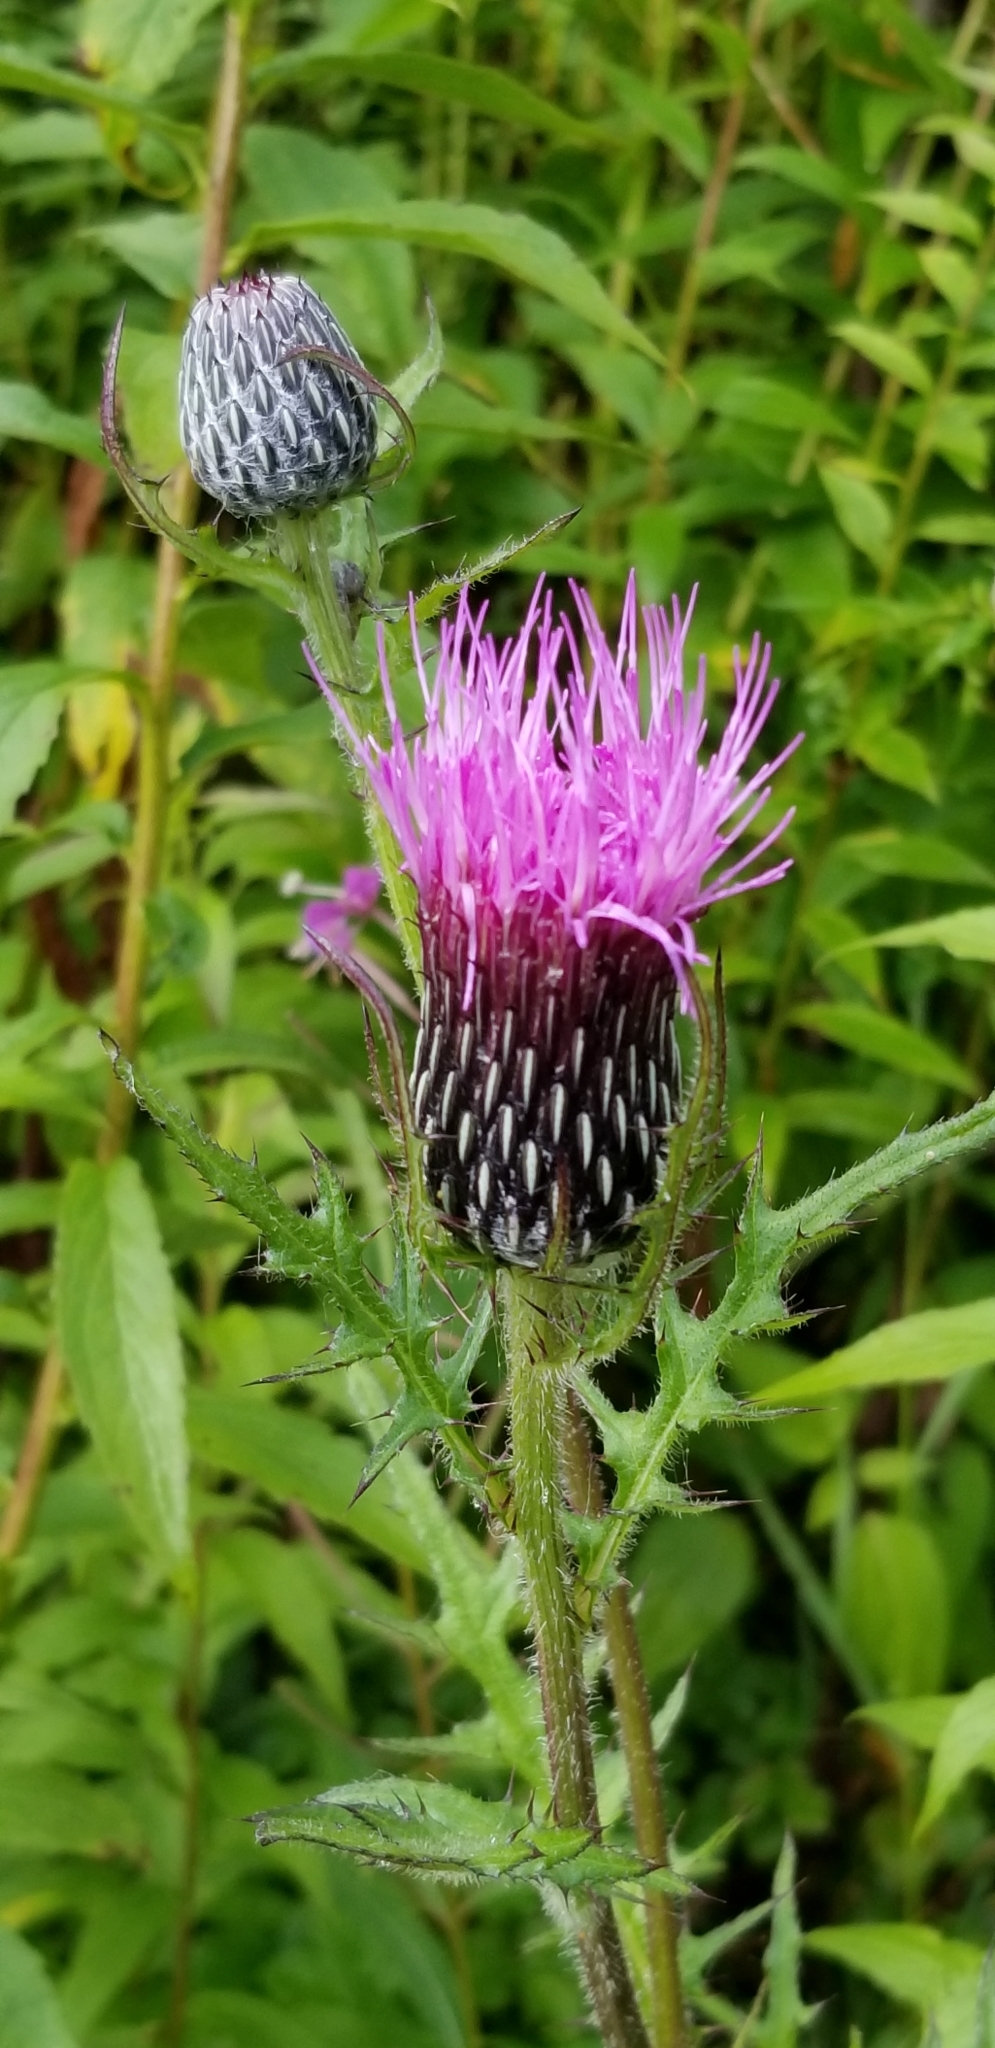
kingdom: Plantae
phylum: Tracheophyta
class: Magnoliopsida
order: Asterales
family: Asteraceae
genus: Cirsium
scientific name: Cirsium muticum
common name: Dunce-nettle
